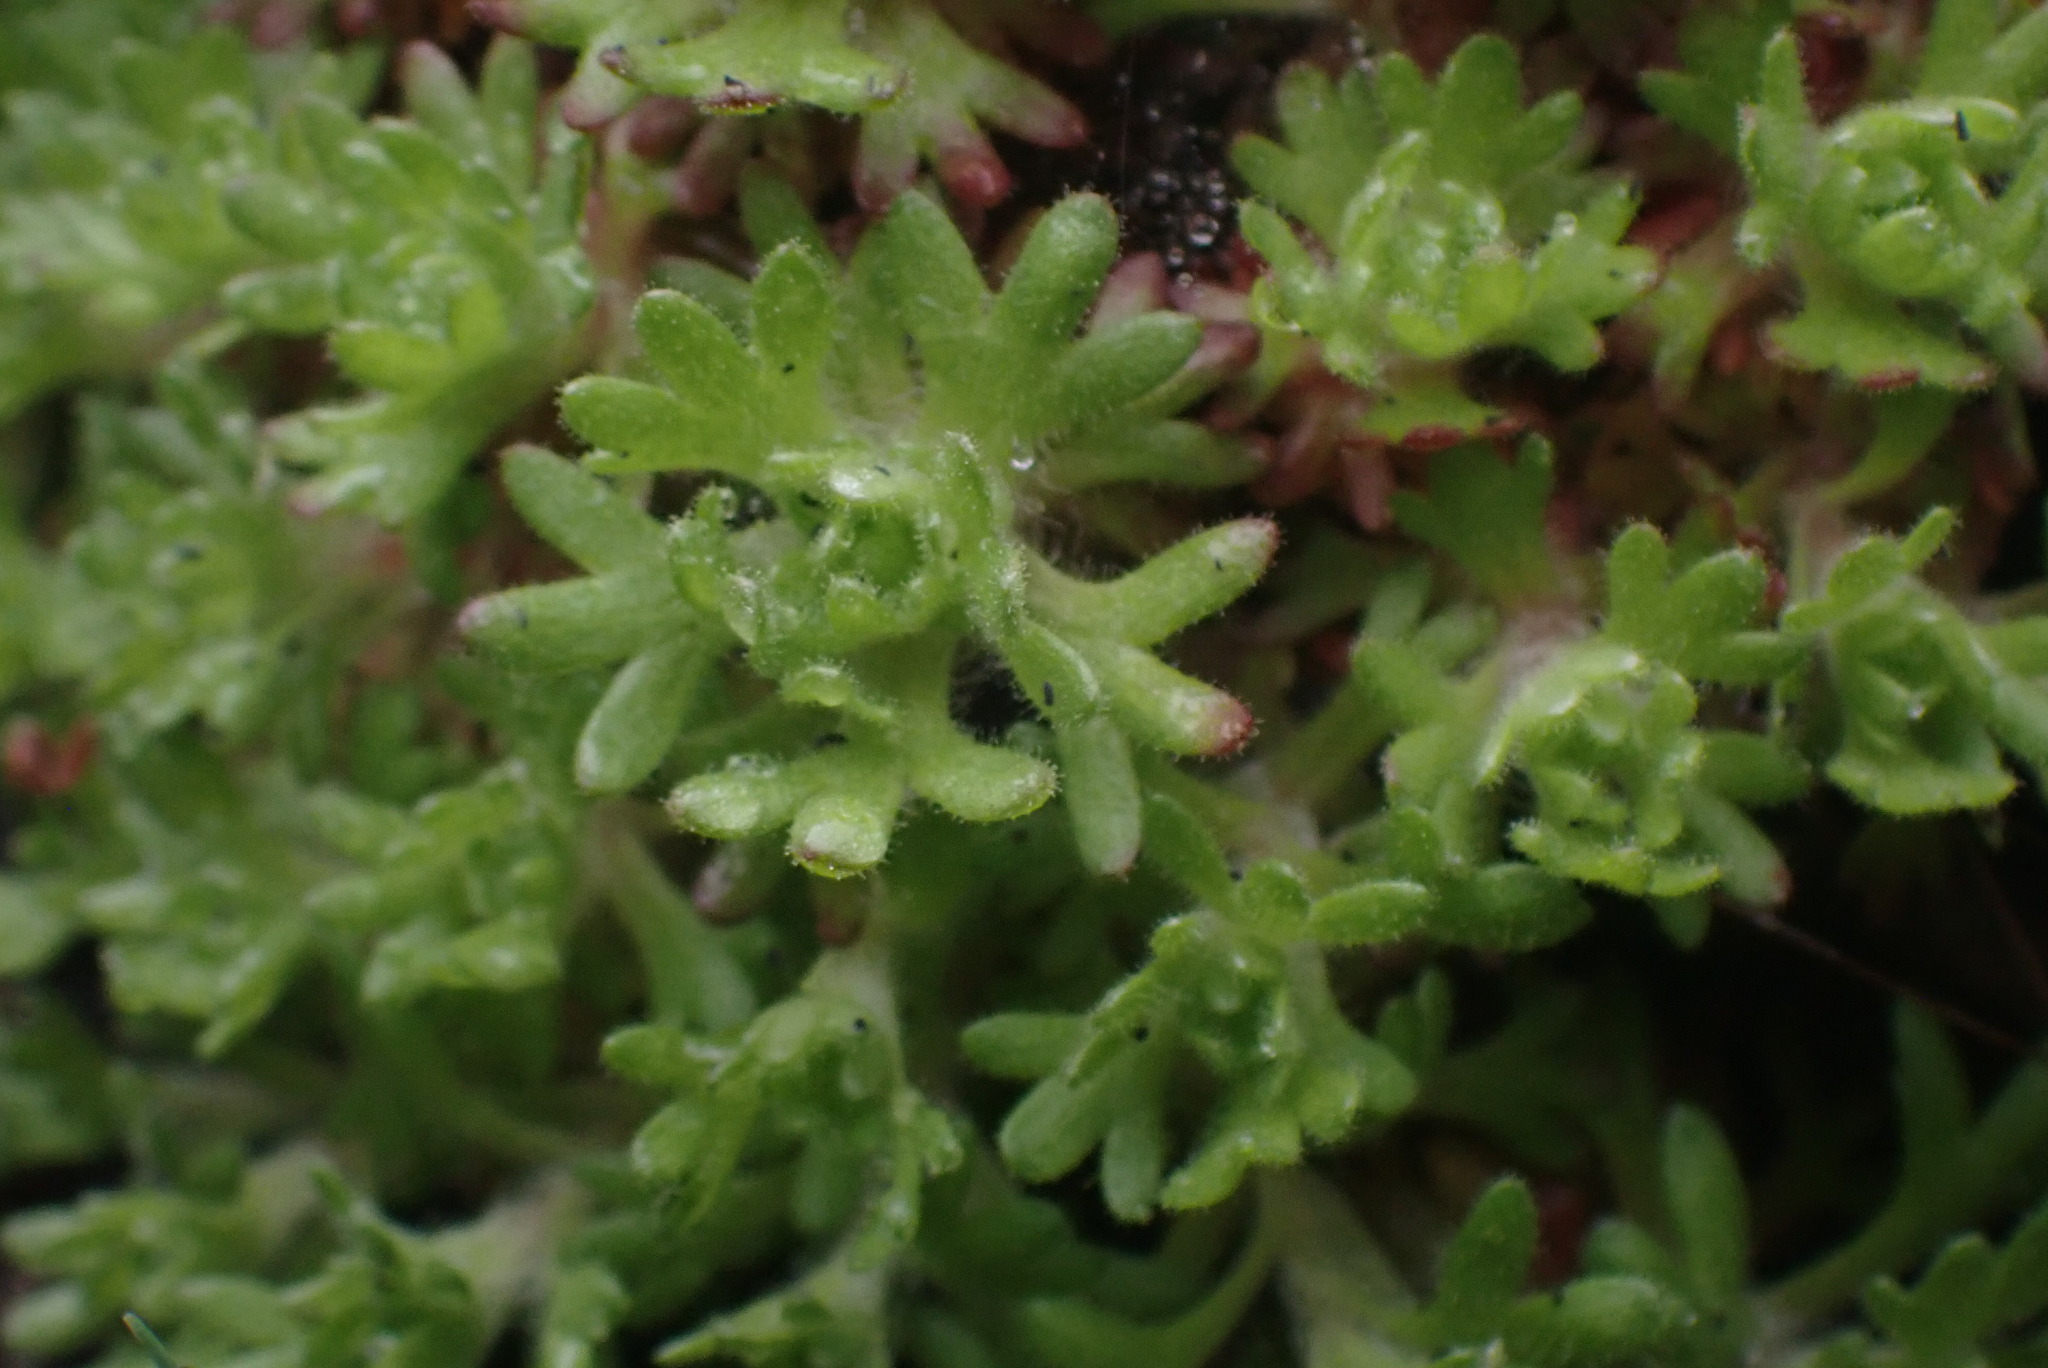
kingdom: Plantae
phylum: Tracheophyta
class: Magnoliopsida
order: Saxifragales
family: Saxifragaceae
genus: Saxifraga
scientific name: Saxifraga cespitosa
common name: Tufted saxifrage
